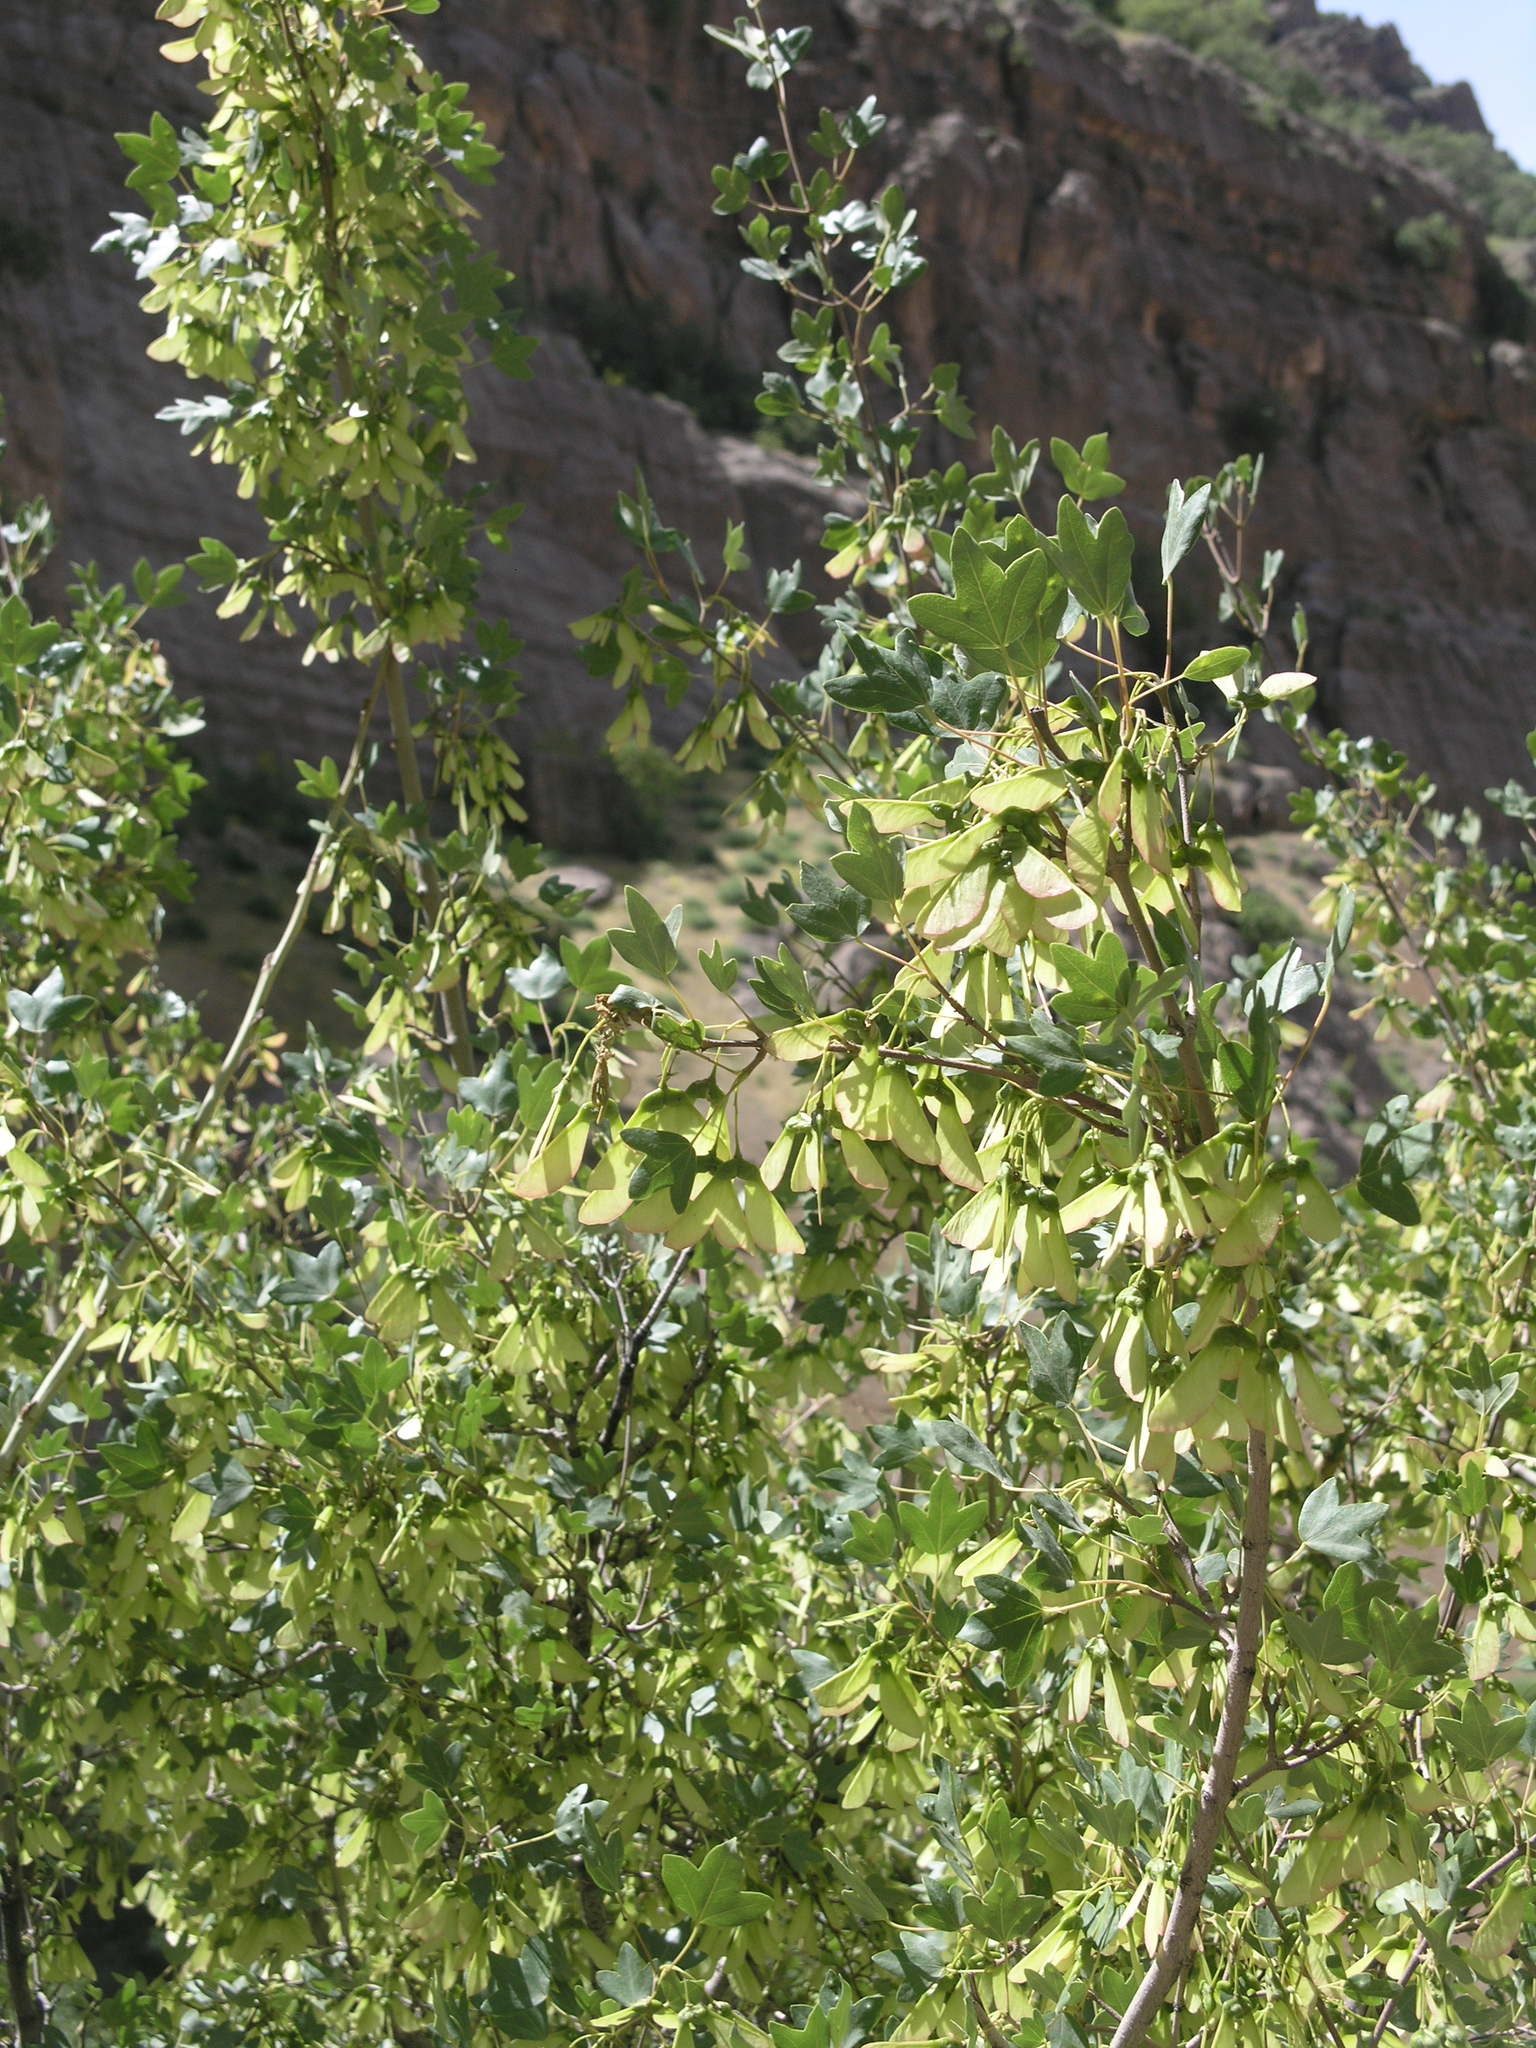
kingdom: Plantae
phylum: Tracheophyta
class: Magnoliopsida
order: Sapindales
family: Sapindaceae
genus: Acer
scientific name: Acer monspessulanum
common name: Montpellier maple
